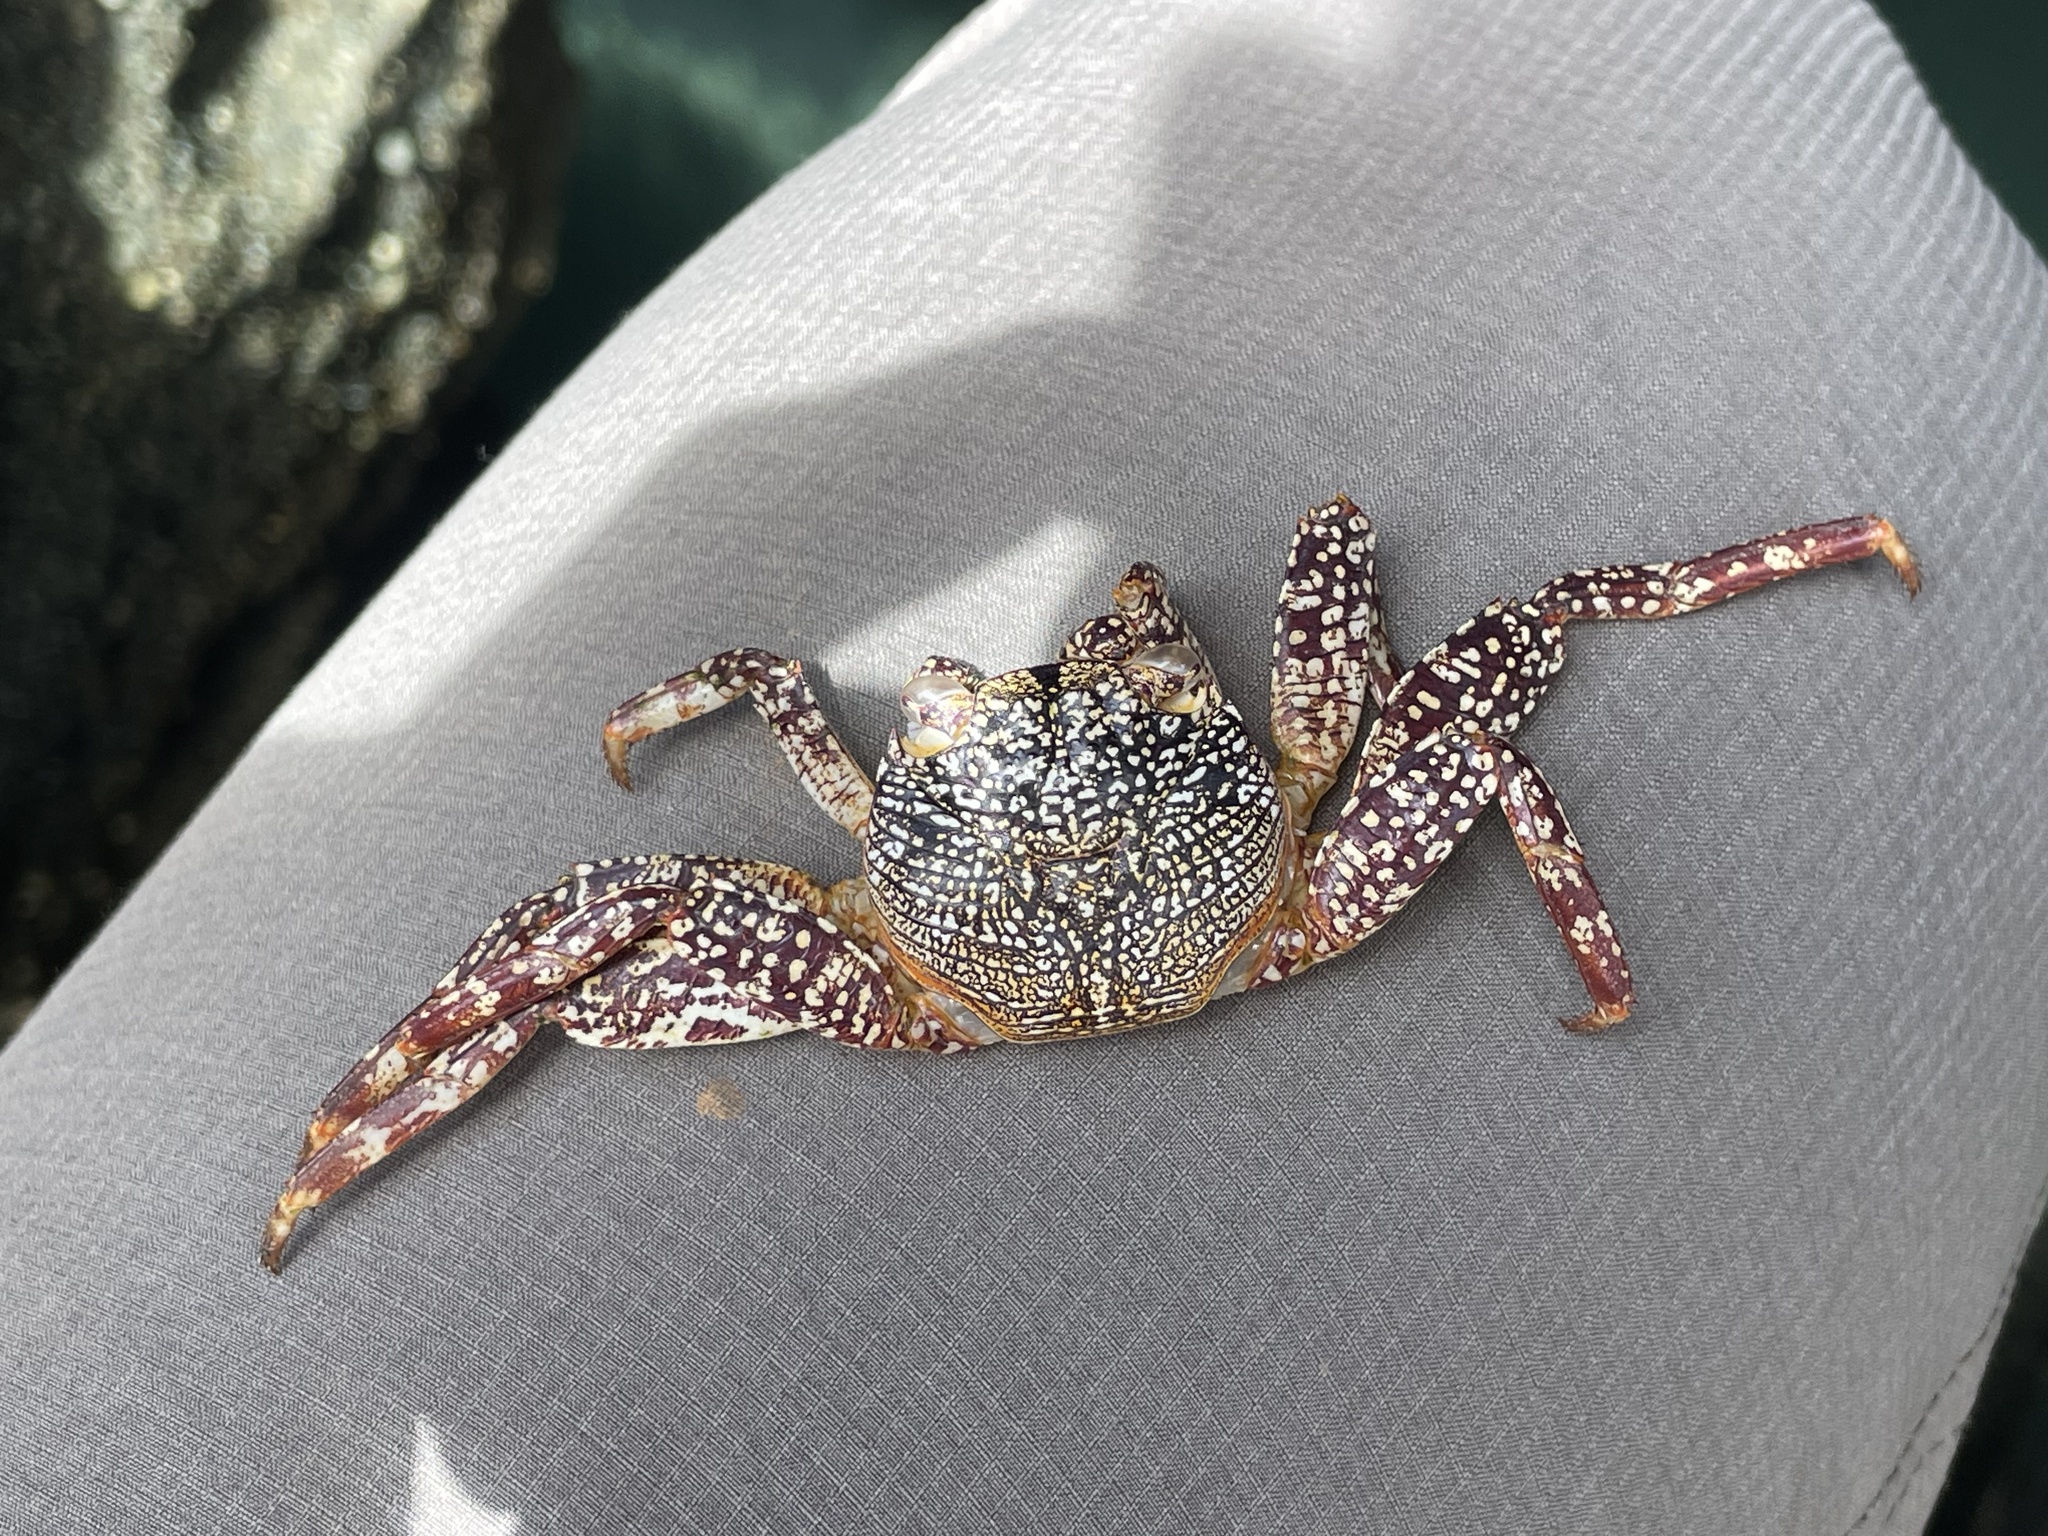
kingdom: Animalia
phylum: Arthropoda
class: Malacostraca
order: Decapoda
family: Grapsidae
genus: Grapsus
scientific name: Grapsus grapsus
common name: Sally lightfoot
